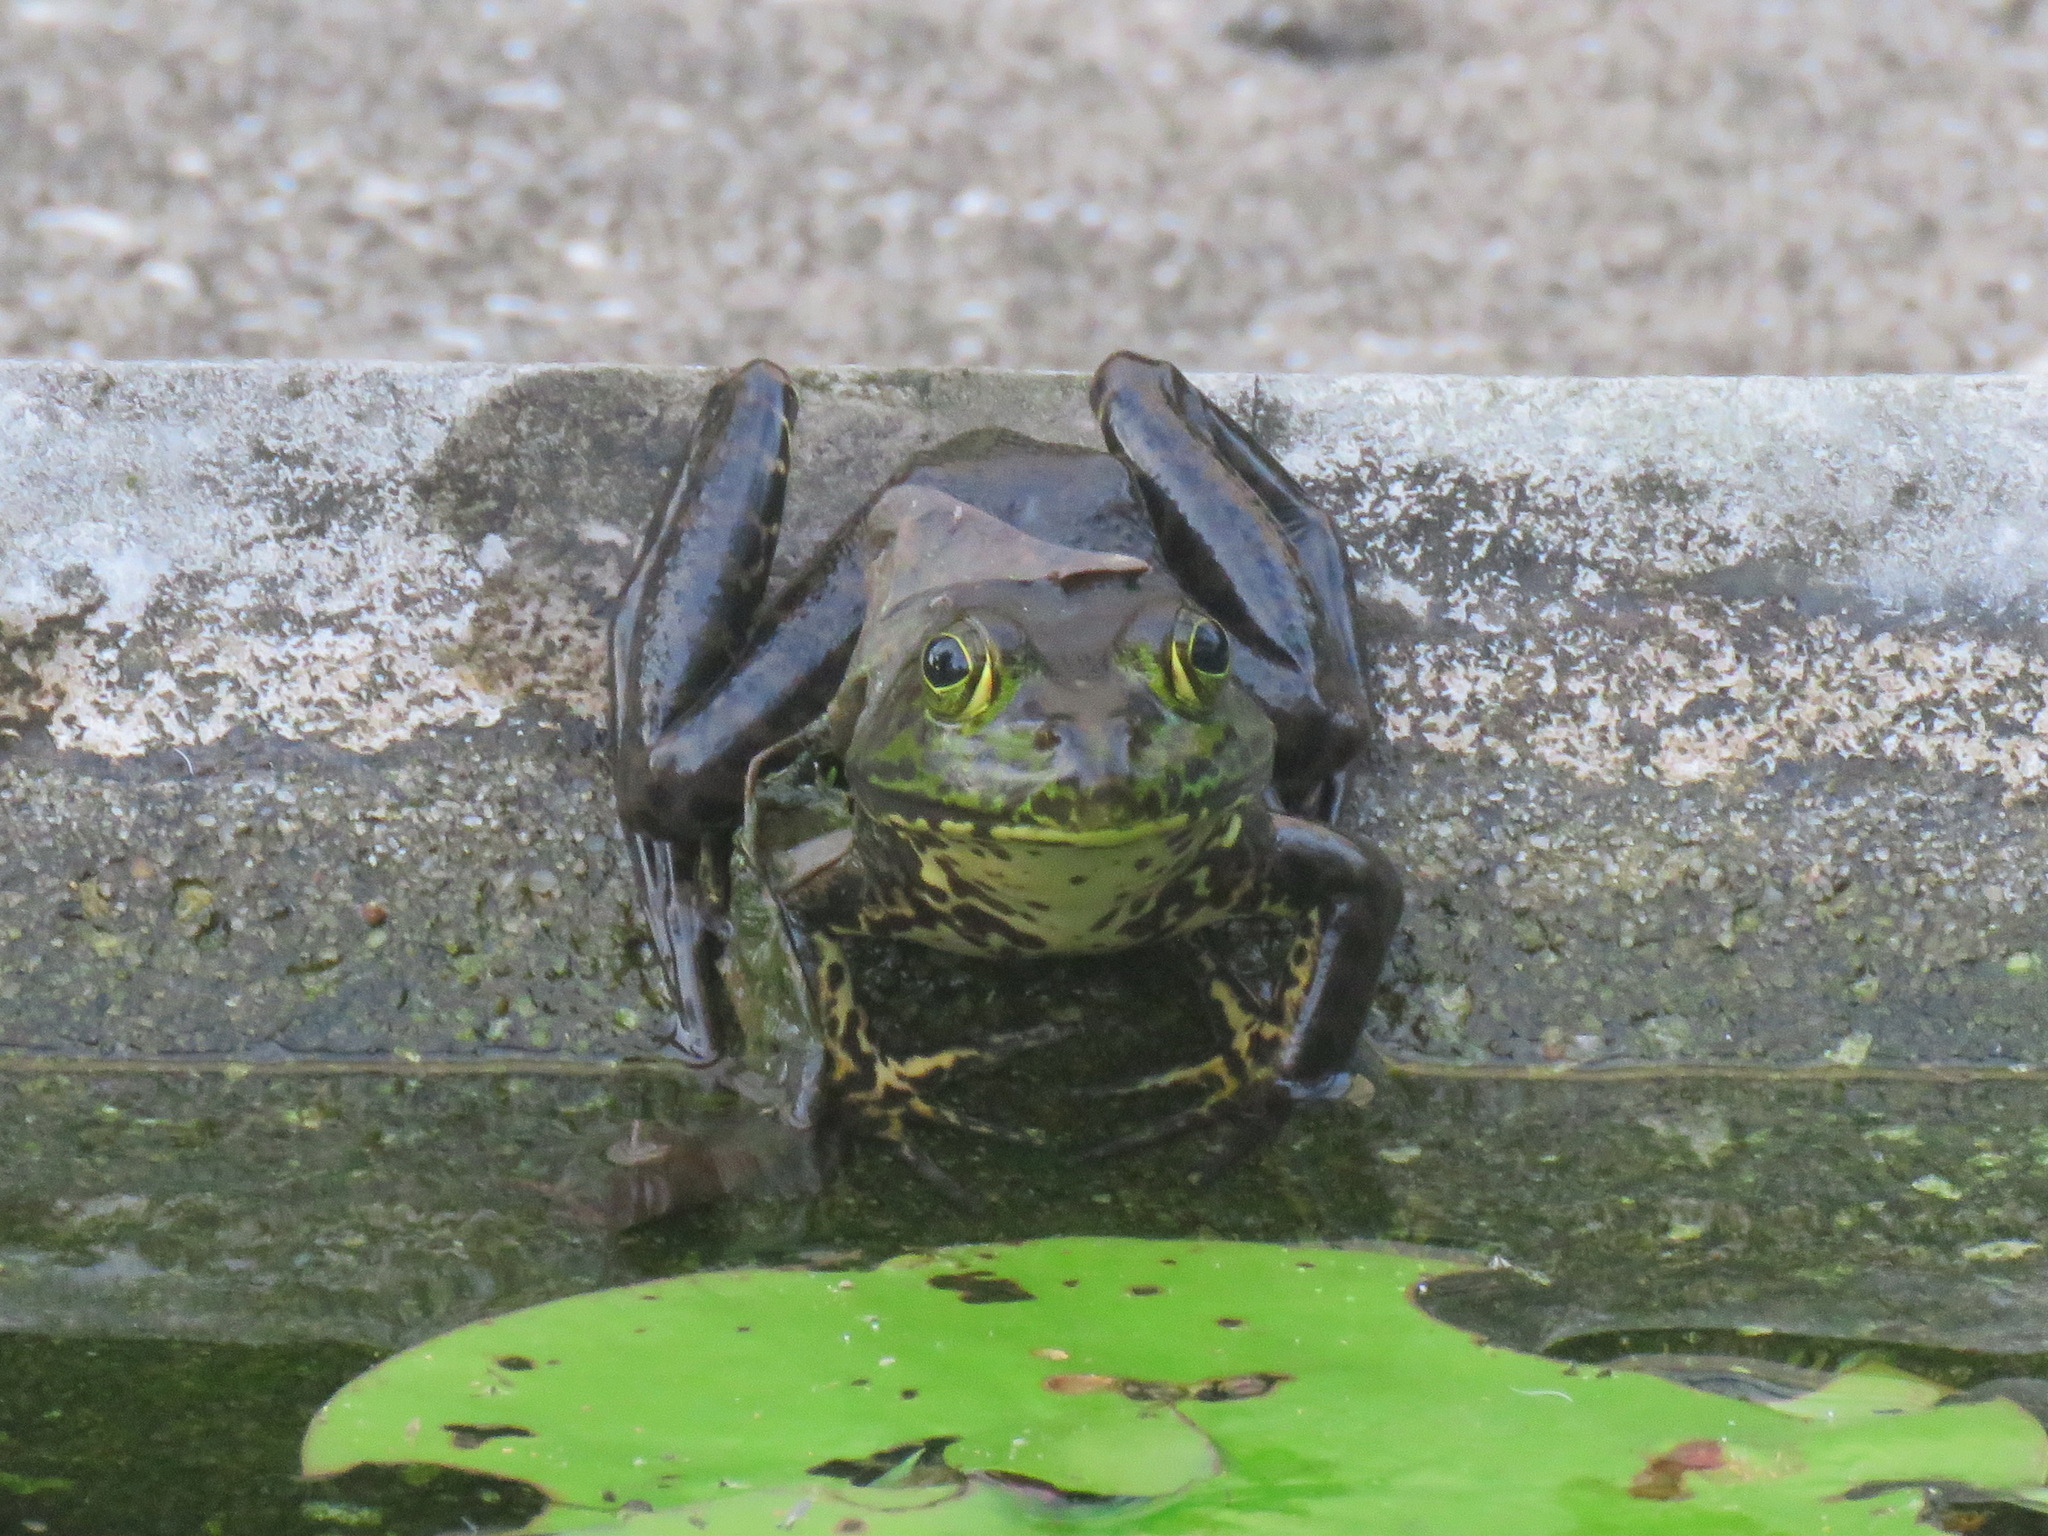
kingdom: Animalia
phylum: Chordata
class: Amphibia
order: Anura
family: Ranidae
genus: Lithobates
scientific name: Lithobates catesbeianus
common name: American bullfrog
